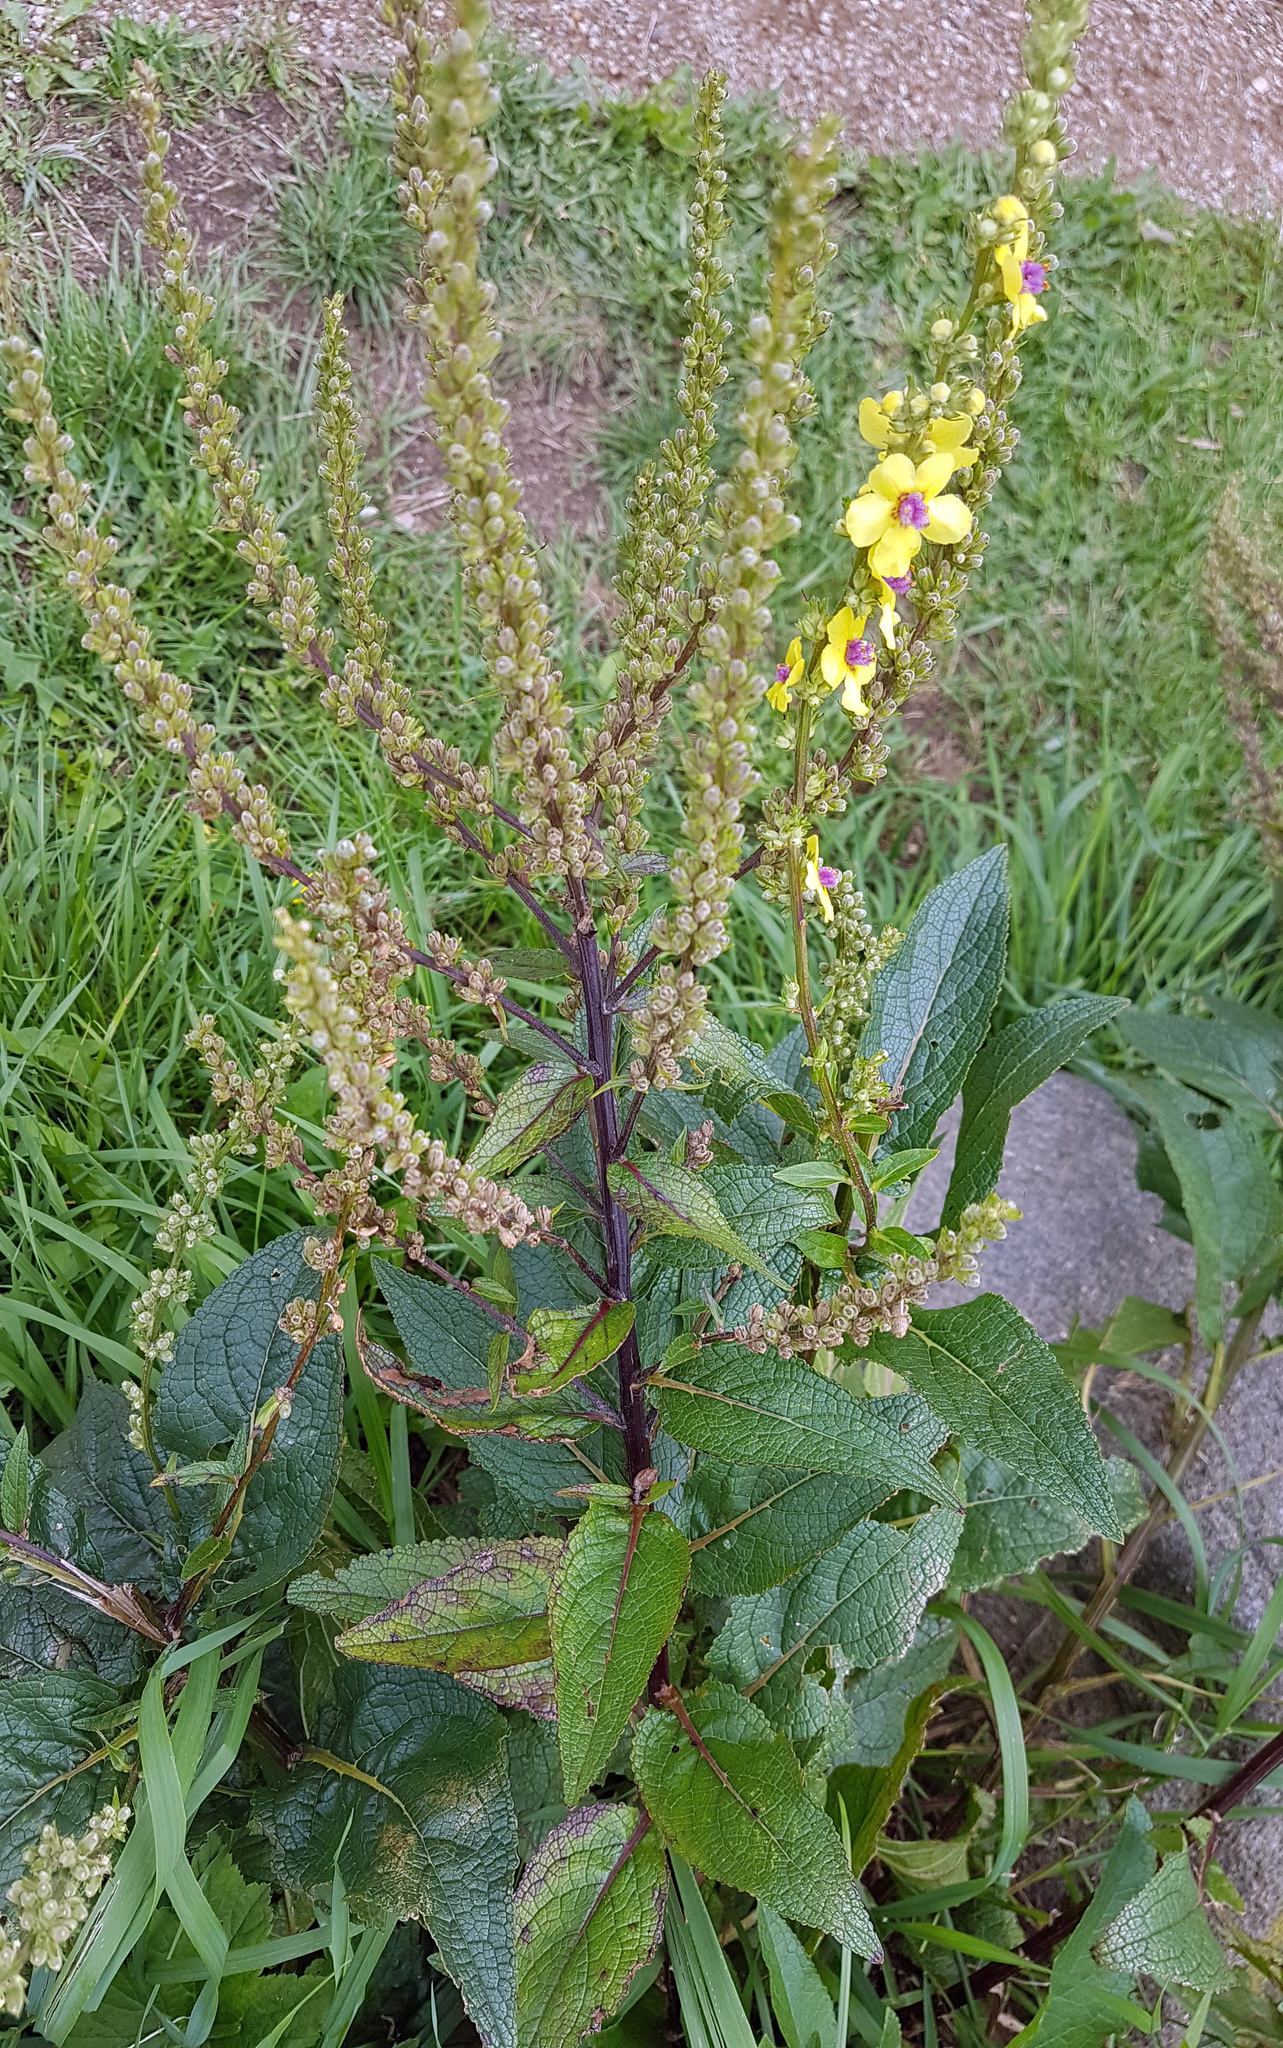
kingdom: Plantae
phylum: Tracheophyta
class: Magnoliopsida
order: Lamiales
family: Scrophulariaceae
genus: Verbascum
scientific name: Verbascum nigrum
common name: Dark mullein
